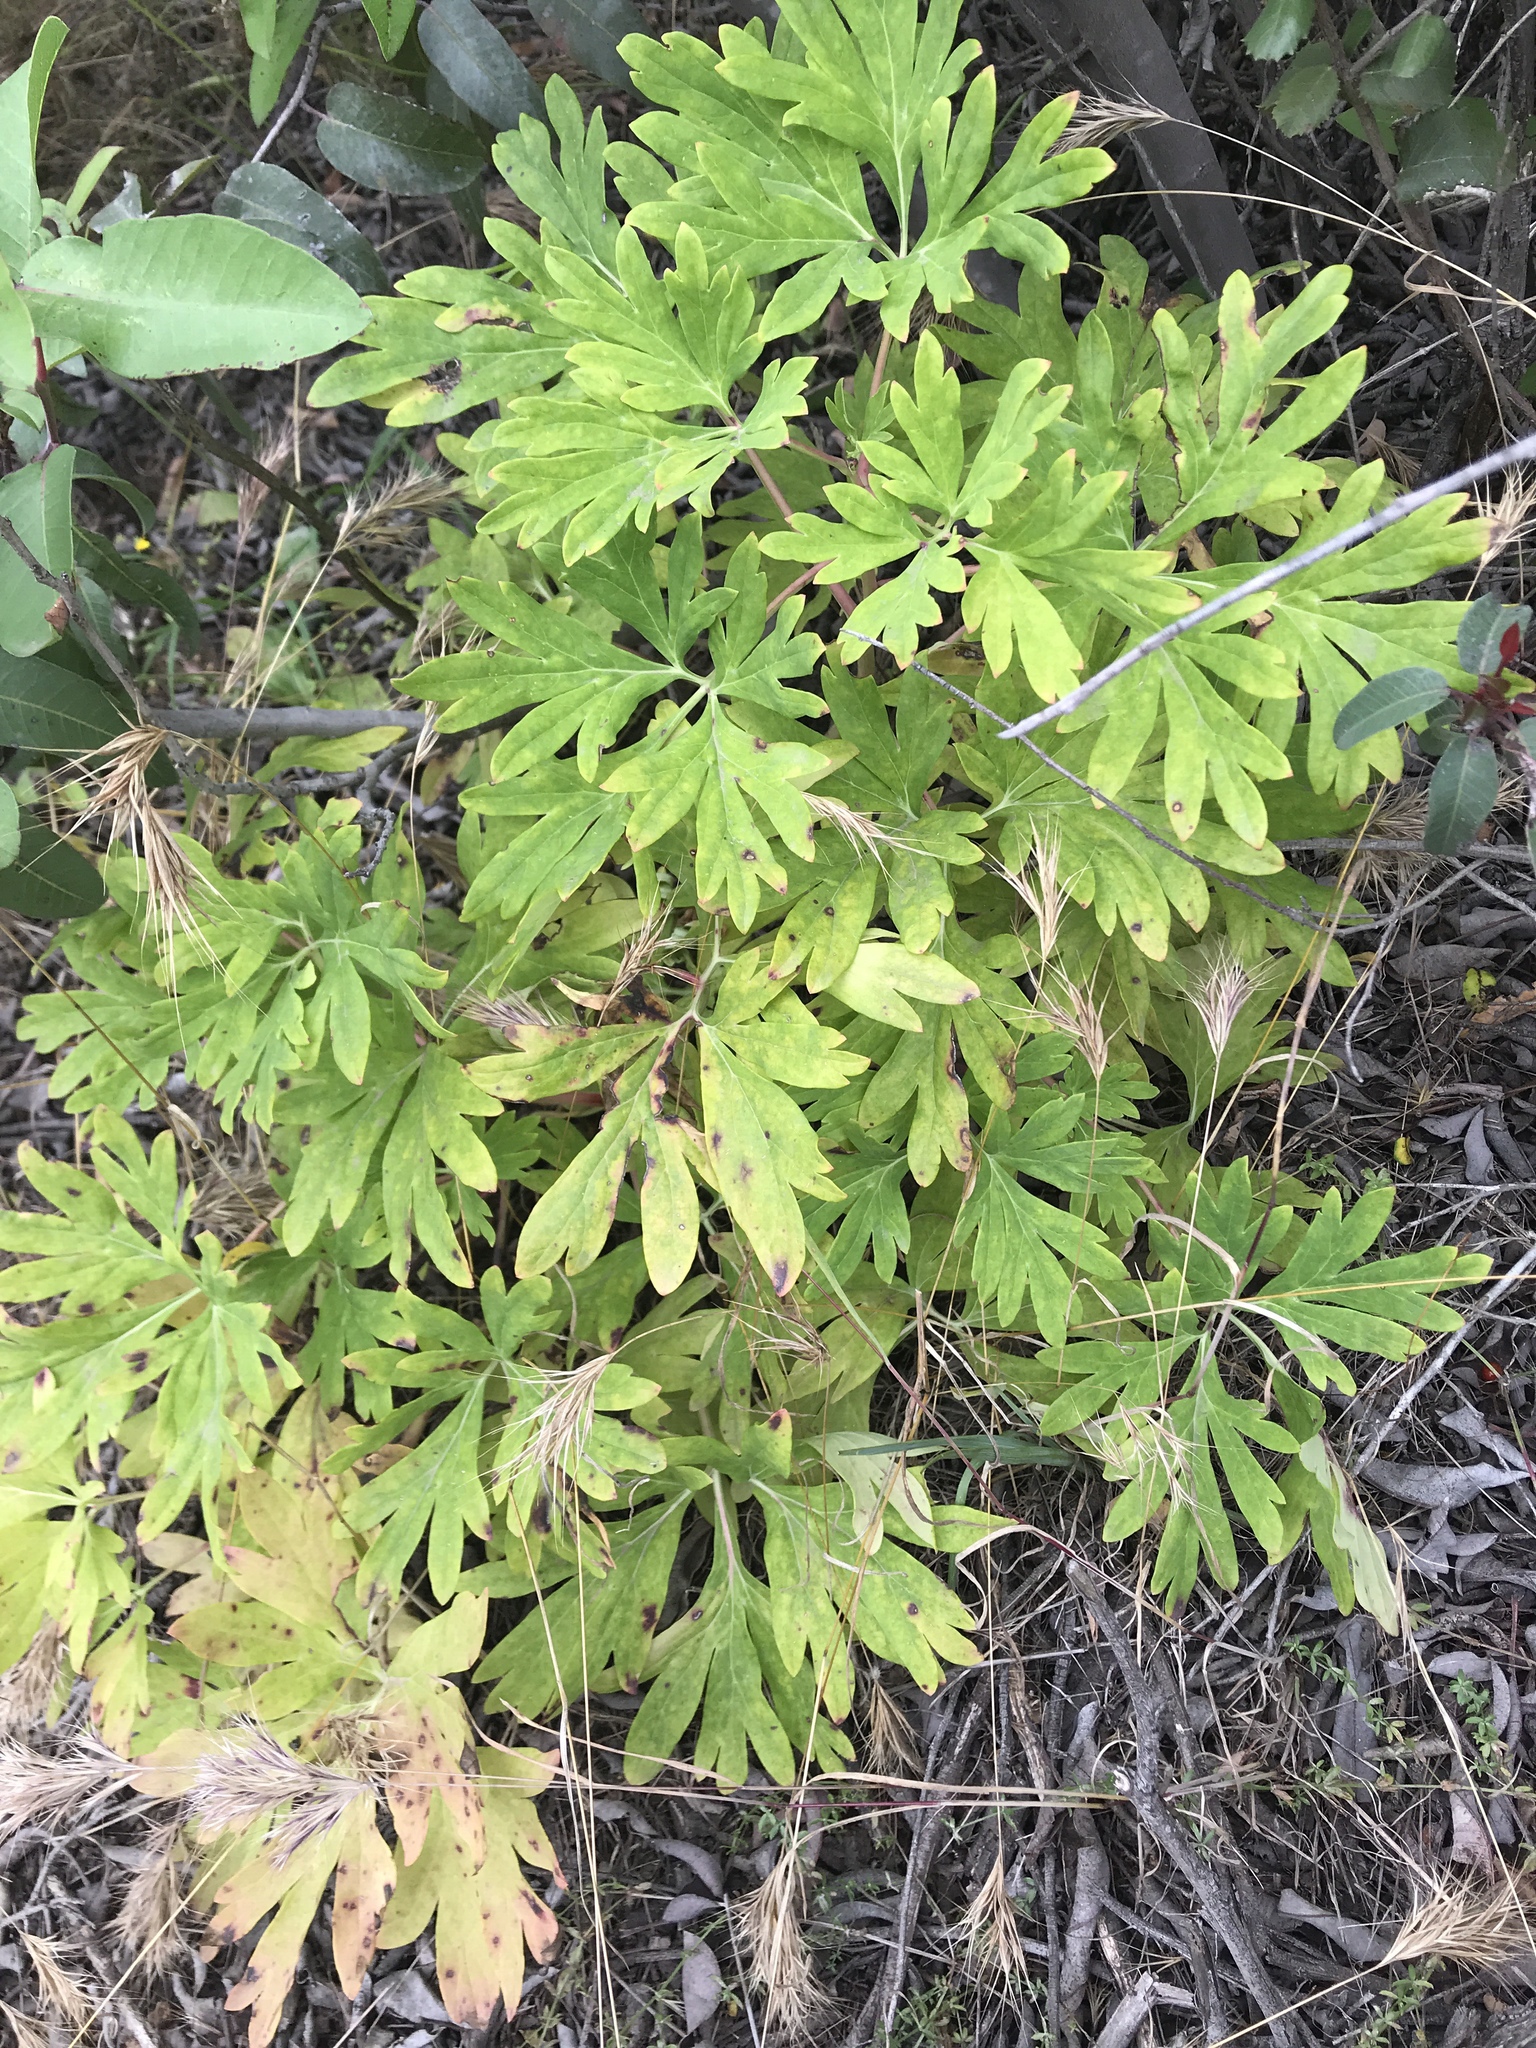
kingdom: Plantae
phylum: Tracheophyta
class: Magnoliopsida
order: Saxifragales
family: Paeoniaceae
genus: Paeonia
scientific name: Paeonia californica
